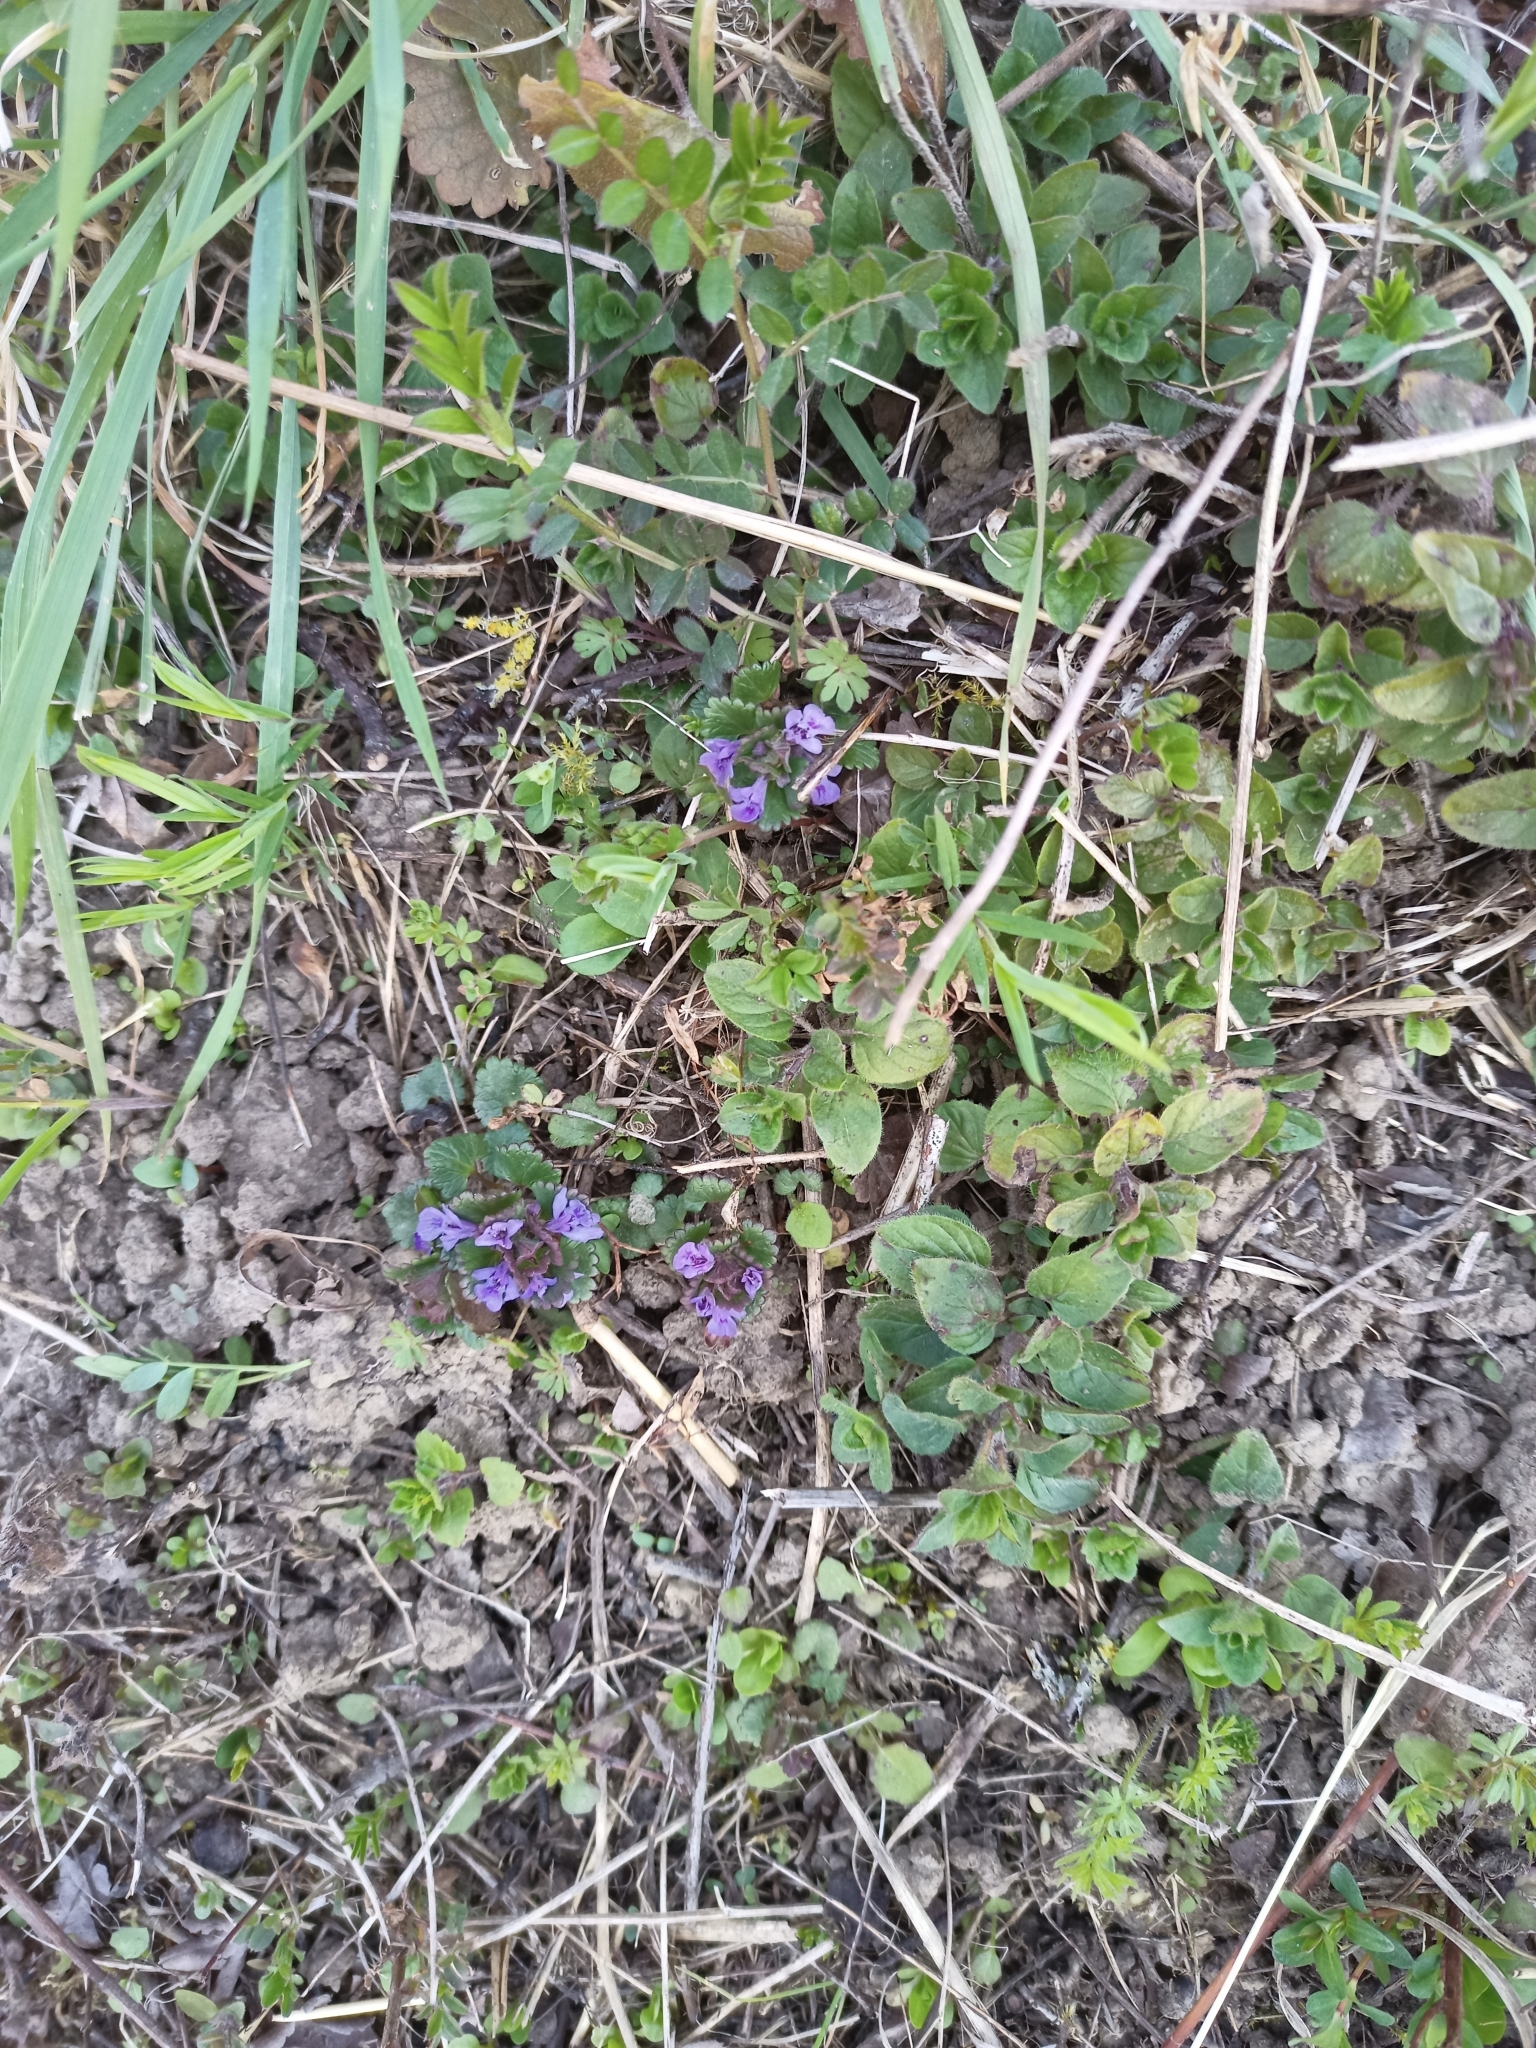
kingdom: Plantae
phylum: Tracheophyta
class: Magnoliopsida
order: Lamiales
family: Lamiaceae
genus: Glechoma
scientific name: Glechoma hederacea
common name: Ground ivy
